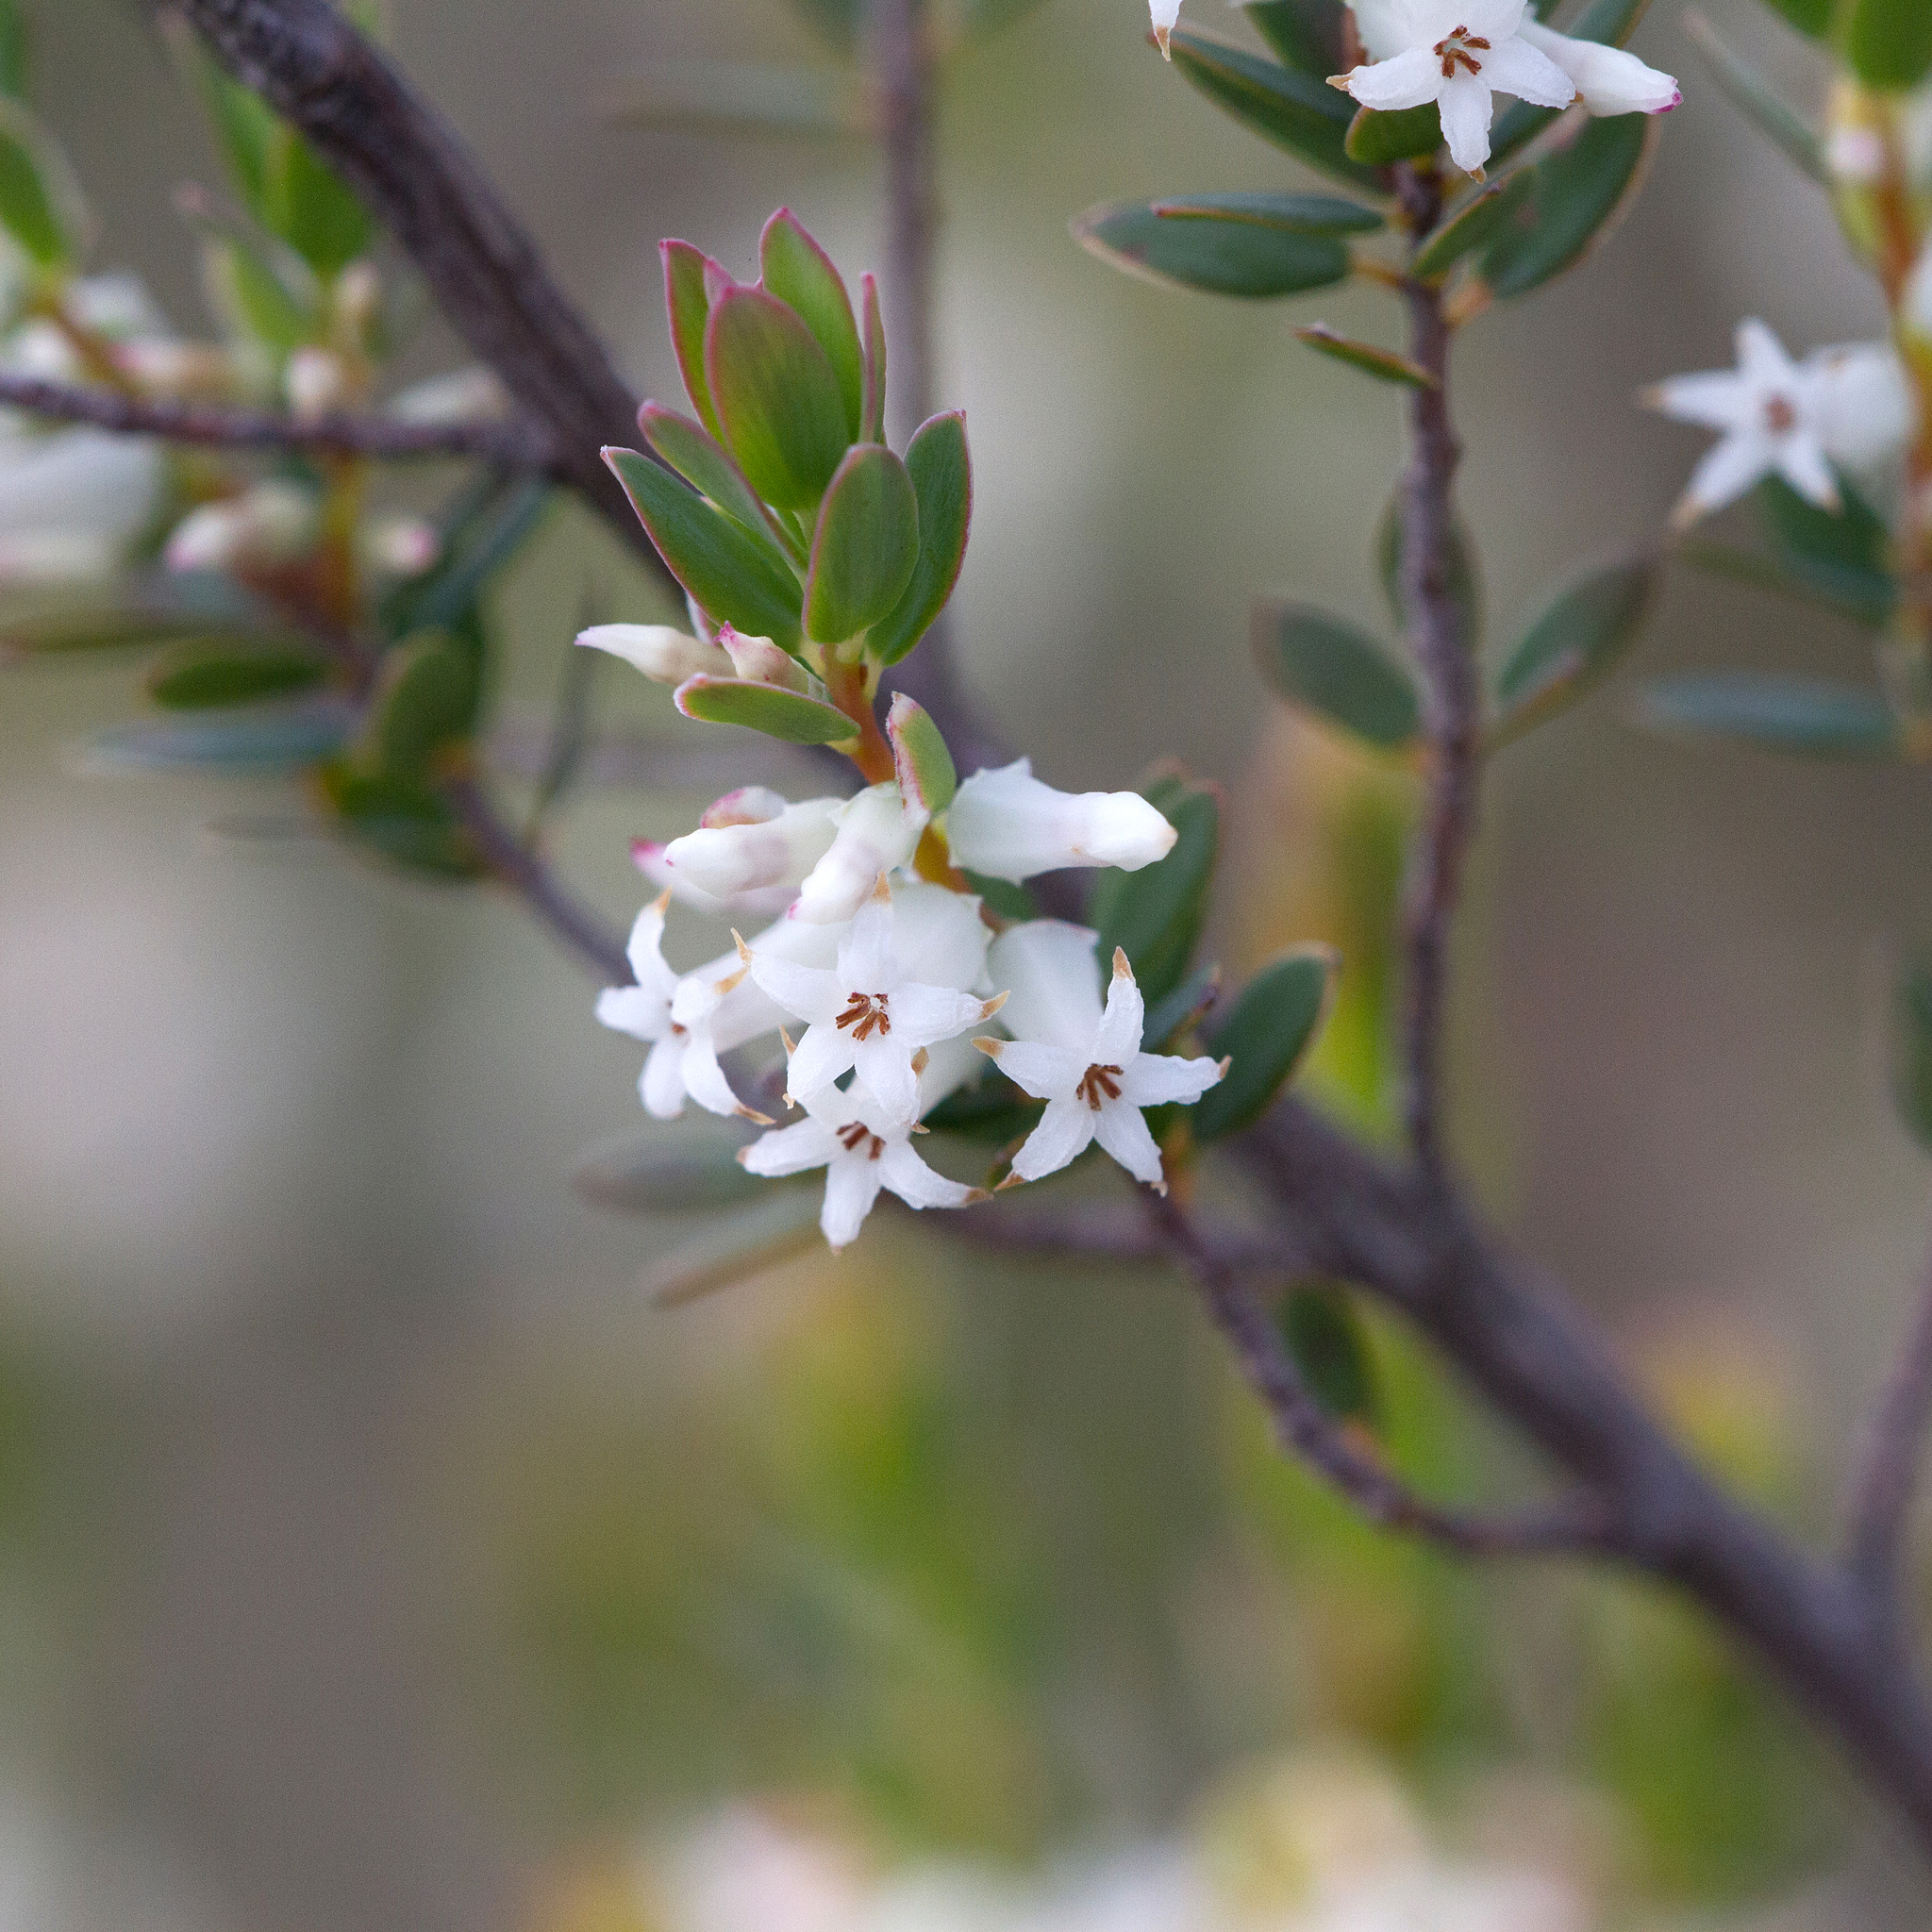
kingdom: Plantae
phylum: Tracheophyta
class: Magnoliopsida
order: Ericales
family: Ericaceae
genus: Brachyloma
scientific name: Brachyloma daphnoides
